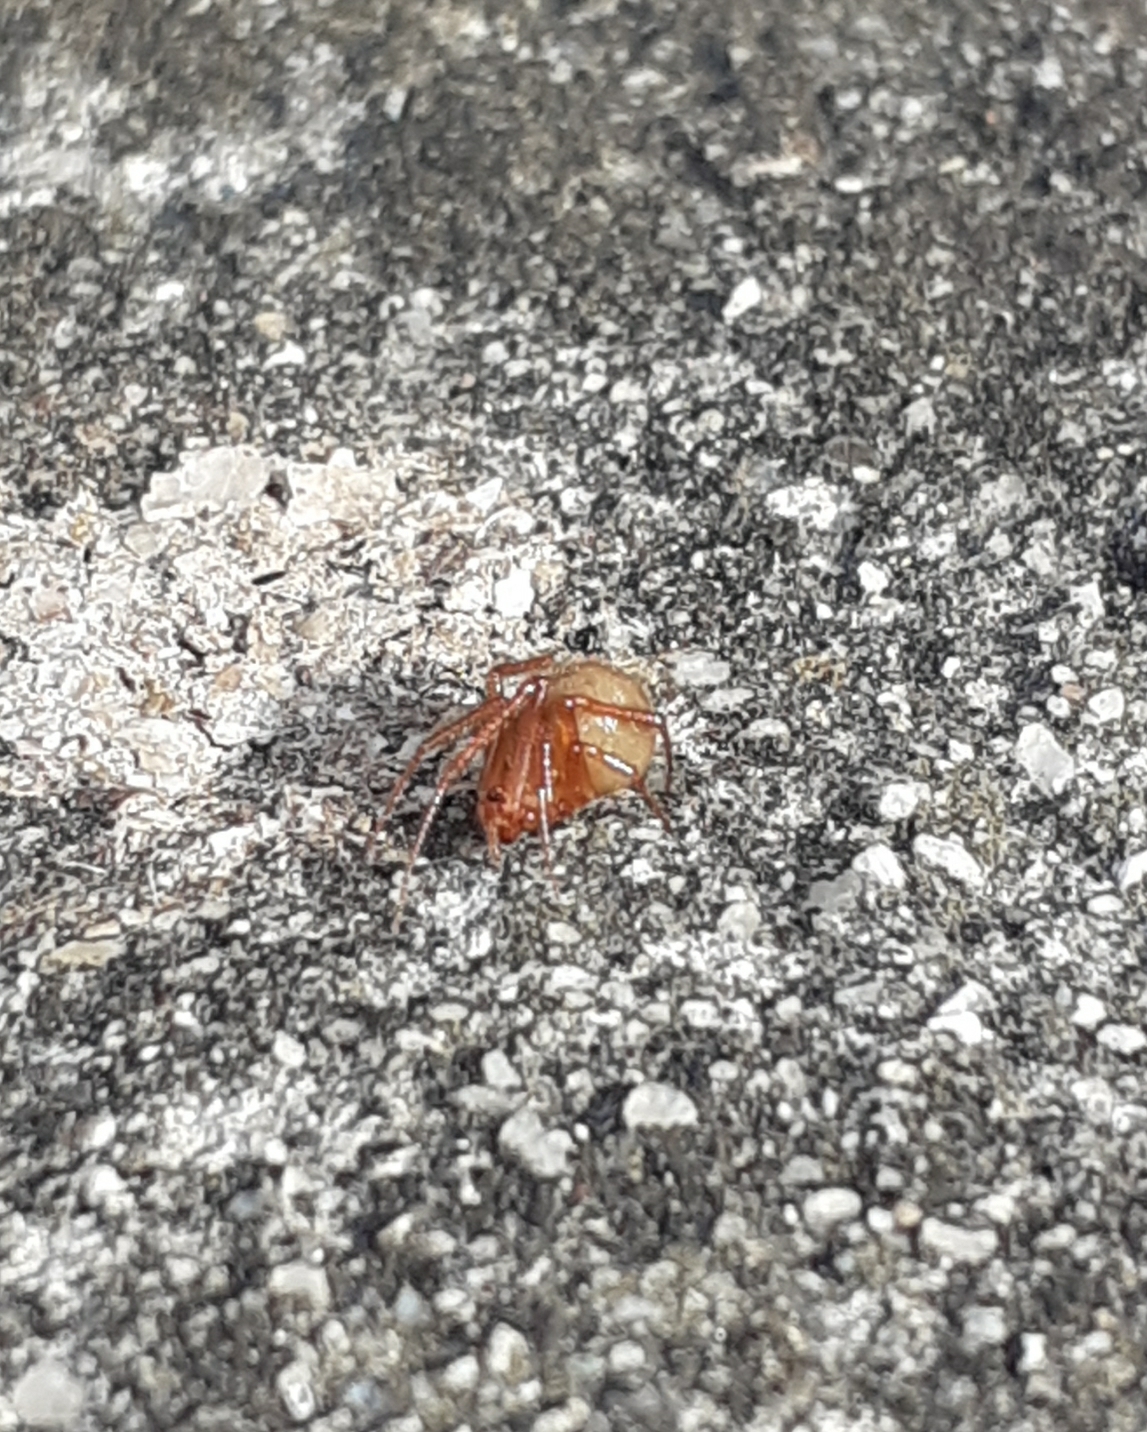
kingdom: Animalia
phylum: Arthropoda
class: Arachnida
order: Araneae
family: Theridiidae
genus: Nesticodes
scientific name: Nesticodes rufipes
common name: Cobweb spiders
